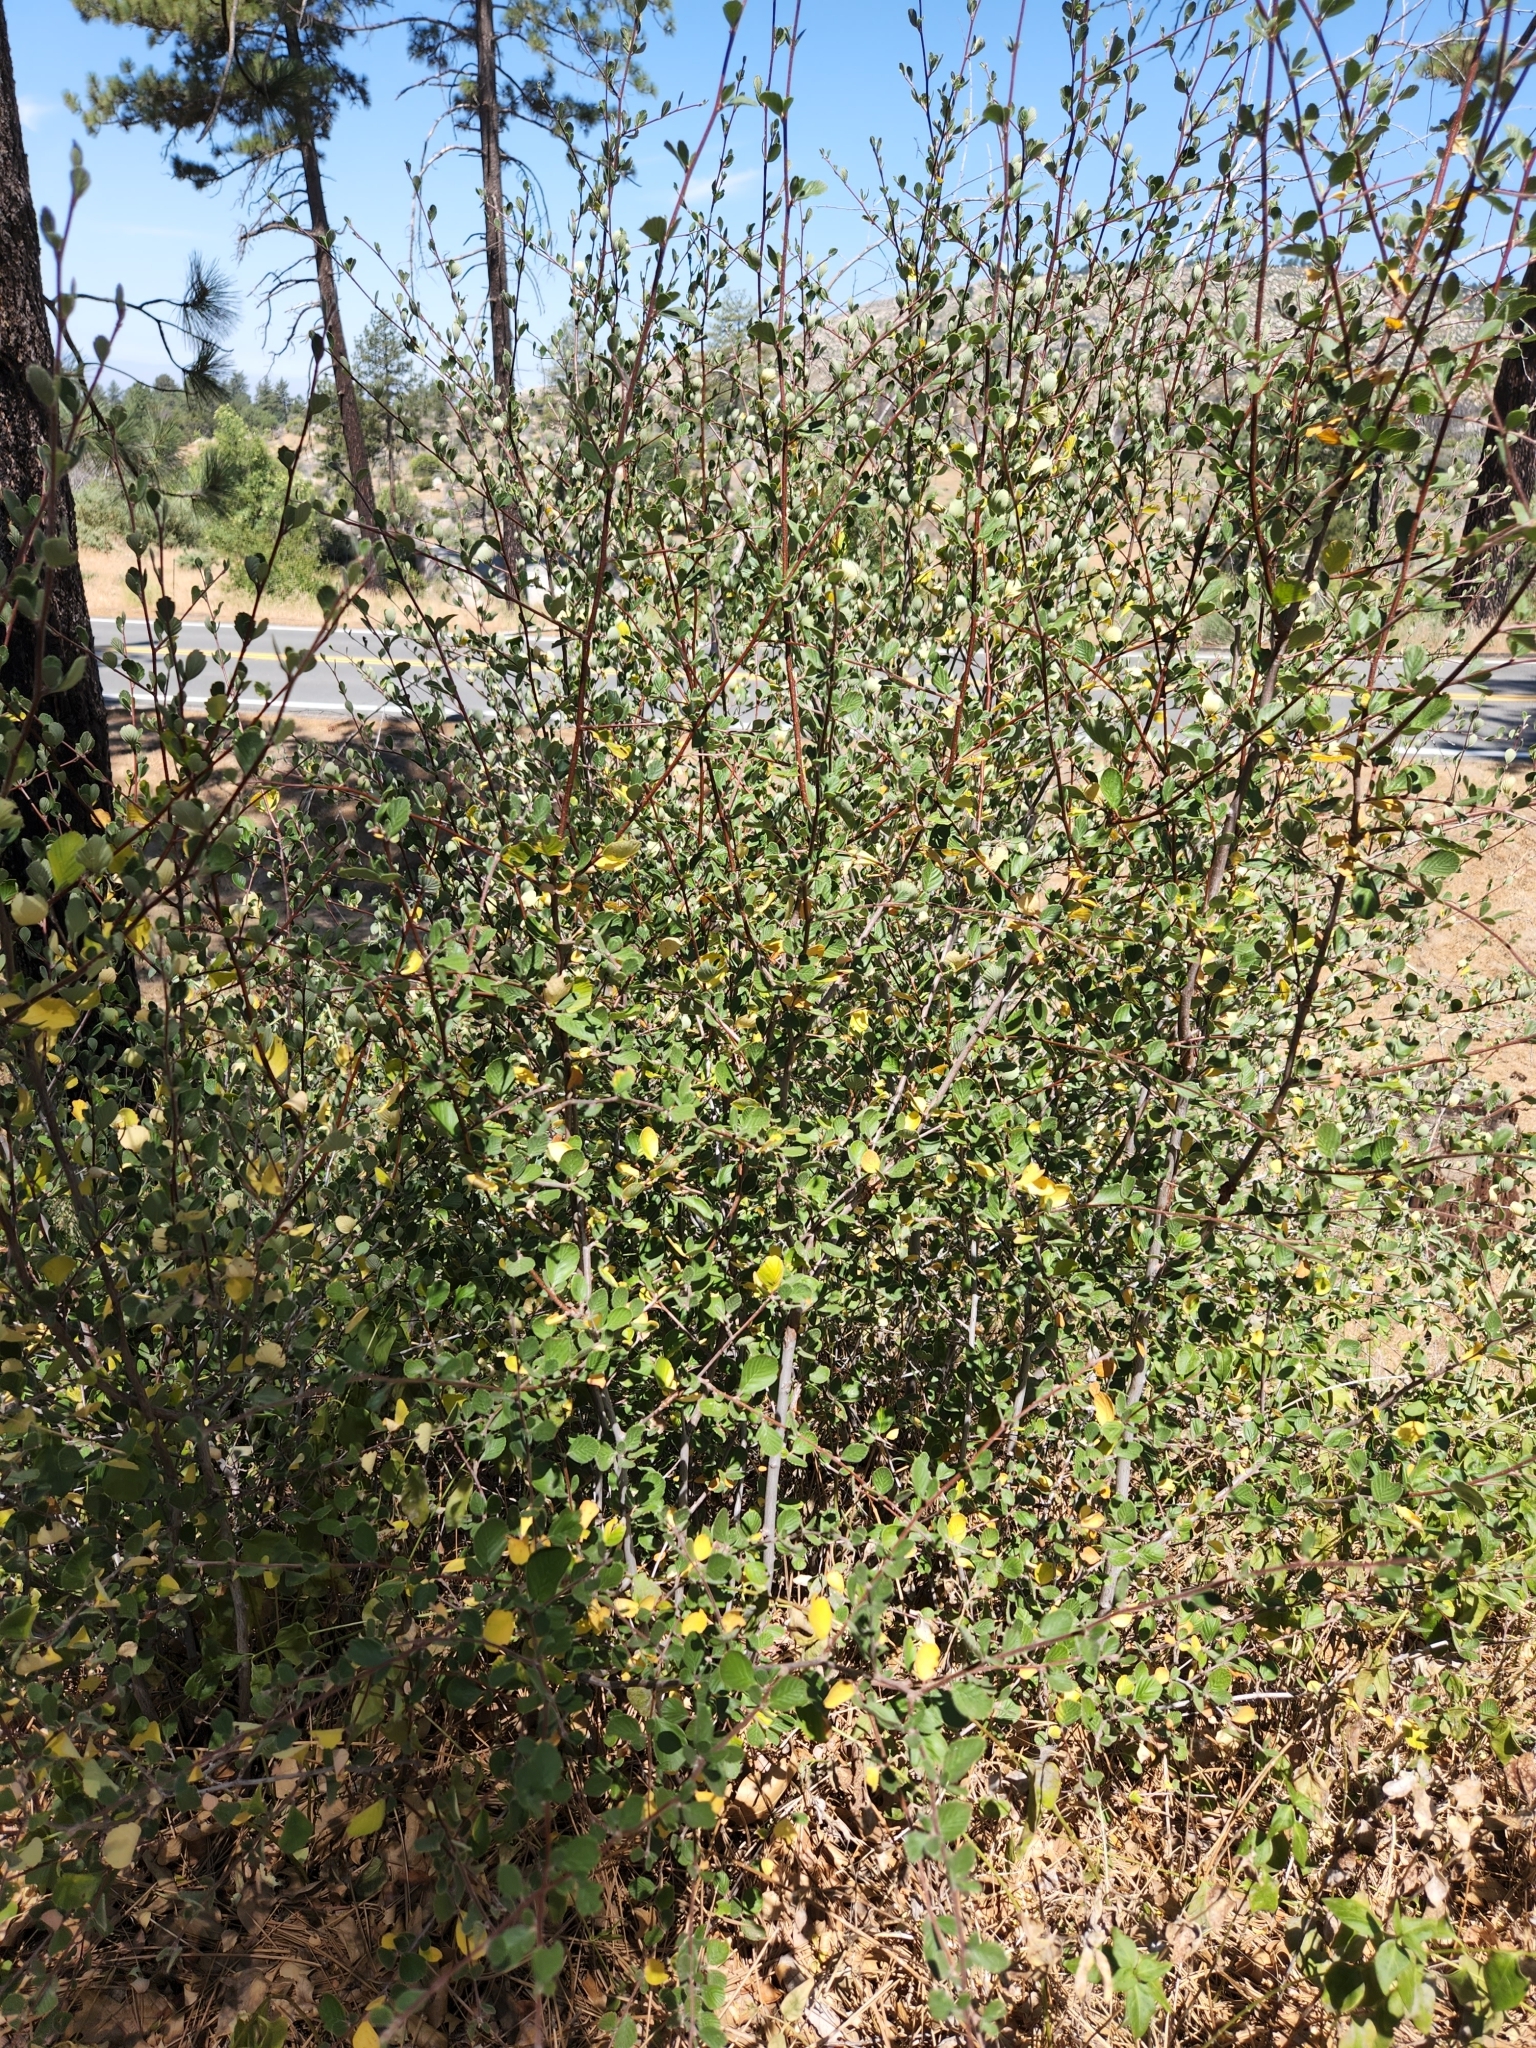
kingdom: Plantae
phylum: Tracheophyta
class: Magnoliopsida
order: Rosales
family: Rosaceae
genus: Cercocarpus
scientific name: Cercocarpus betuloides
